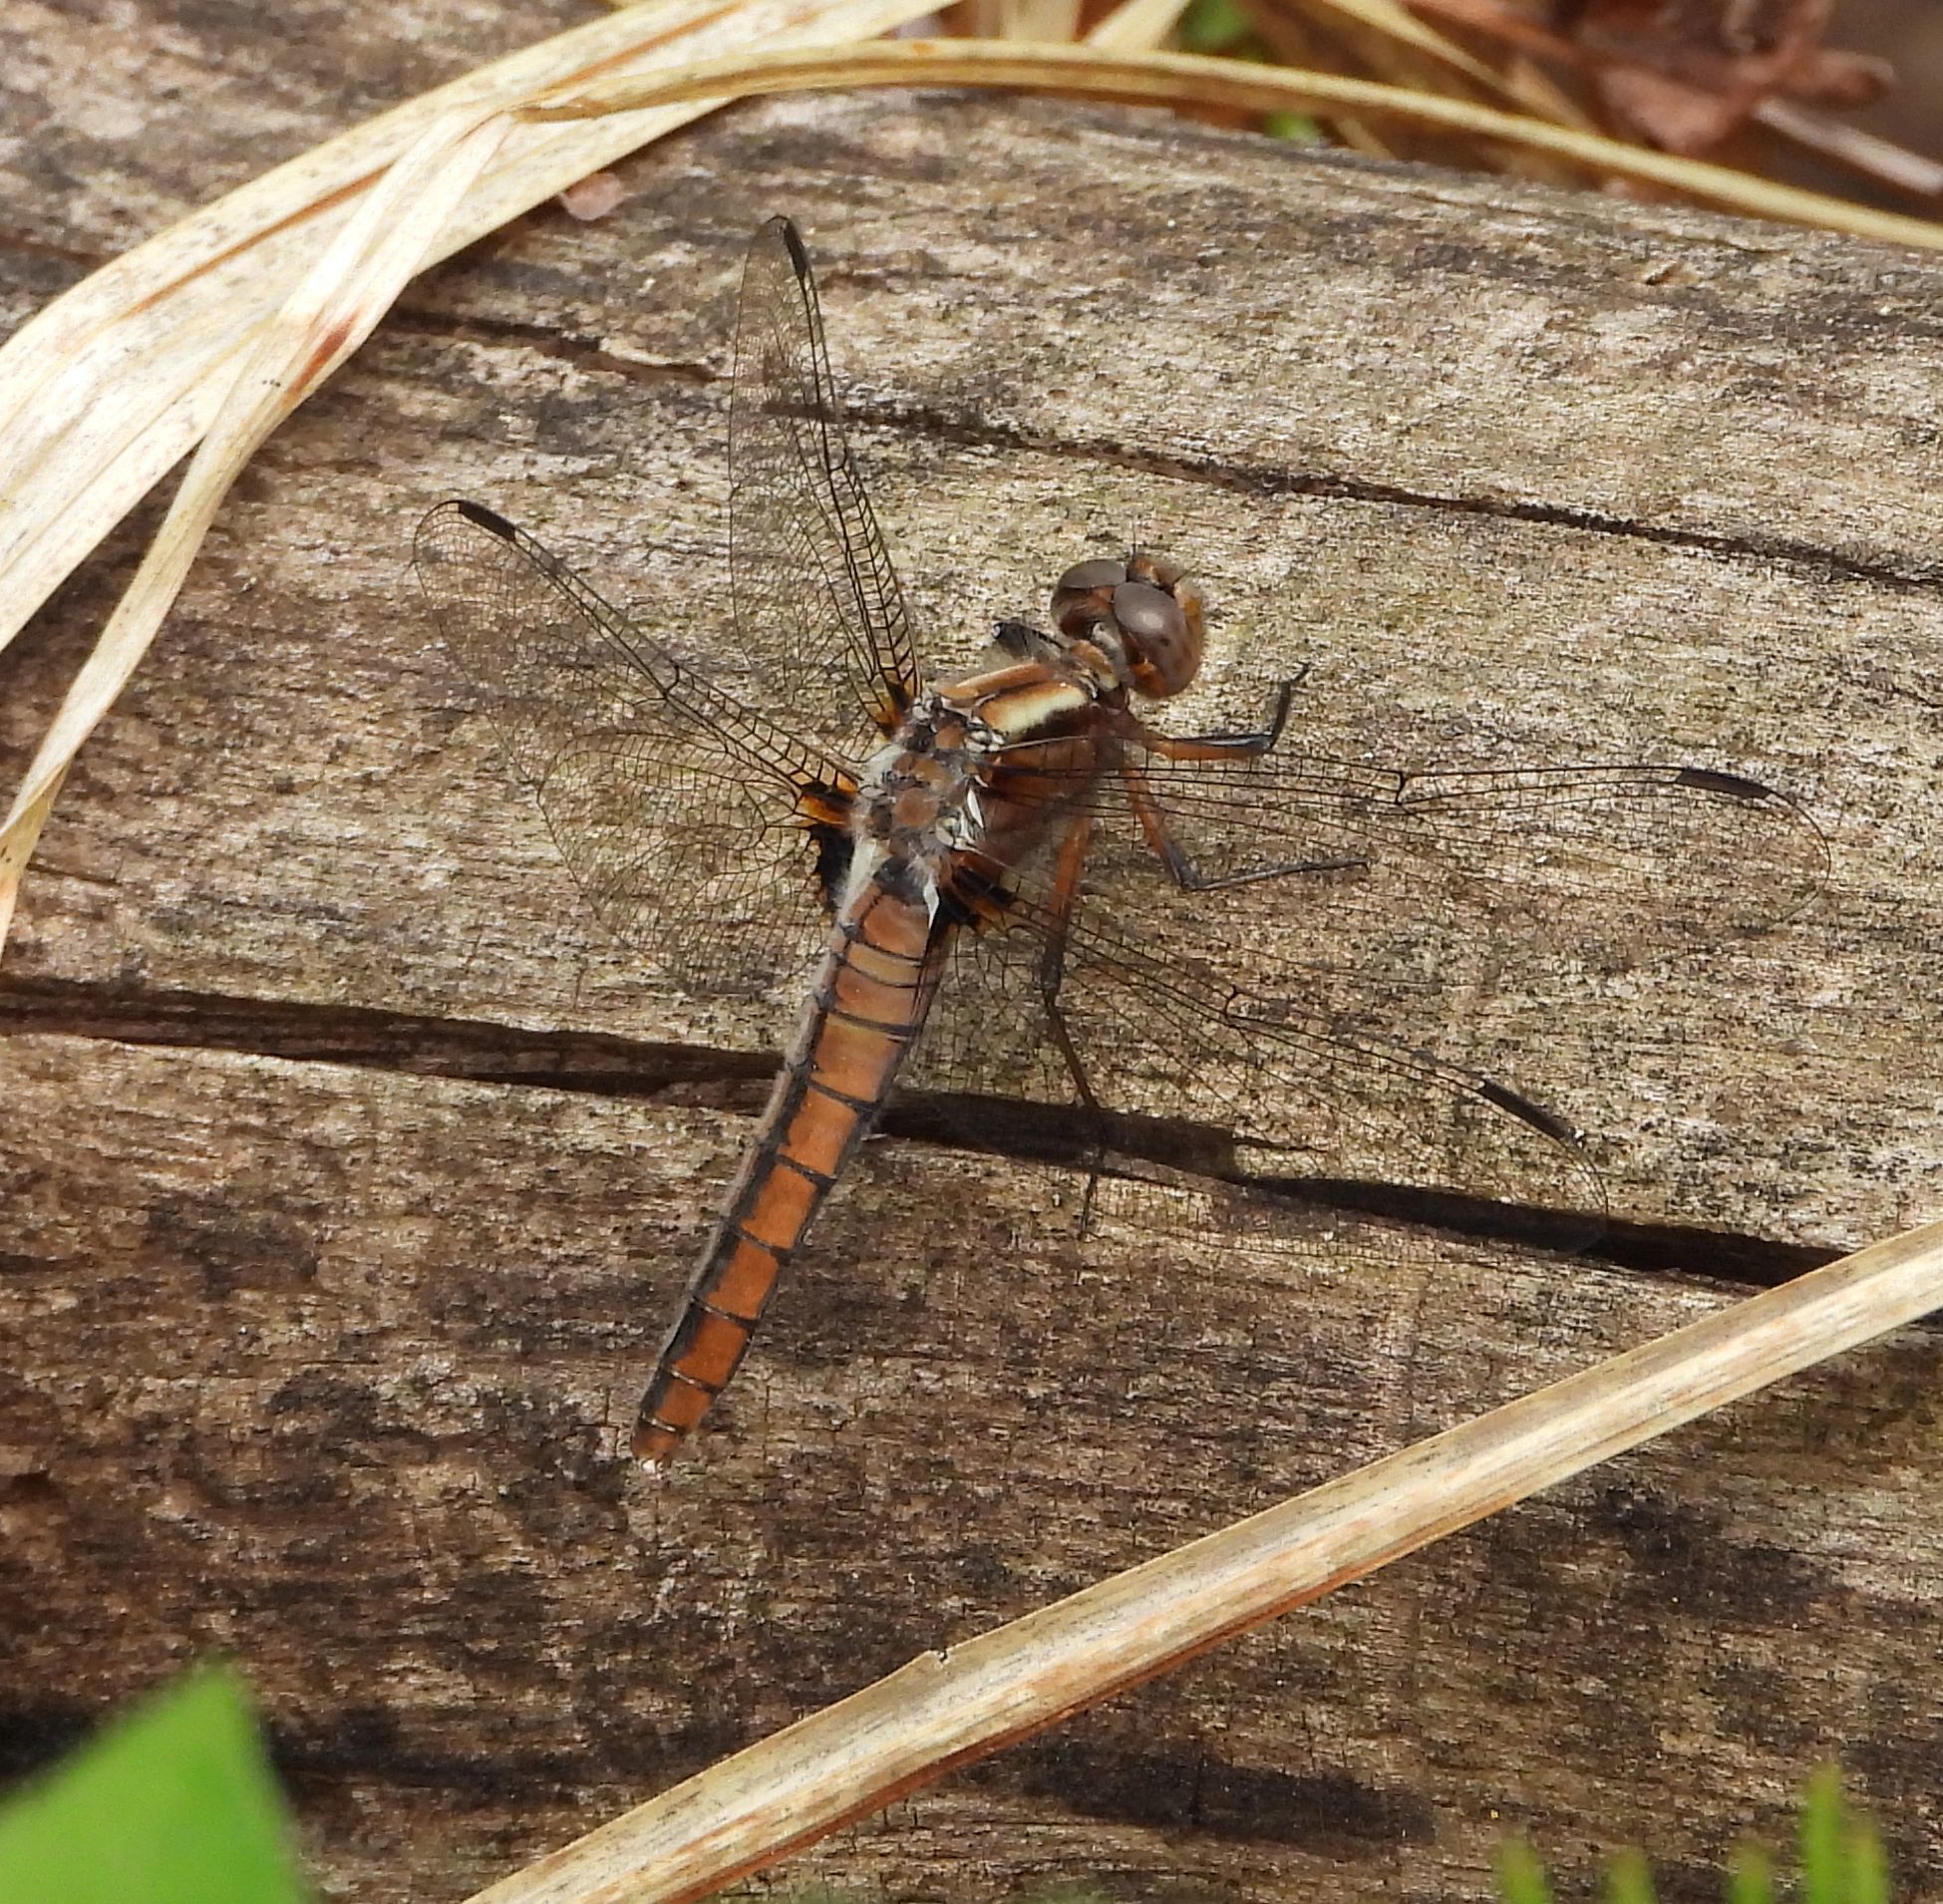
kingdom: Animalia
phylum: Arthropoda
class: Insecta
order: Odonata
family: Libellulidae
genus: Ladona
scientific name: Ladona julia
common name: Chalk-fronted corporal
